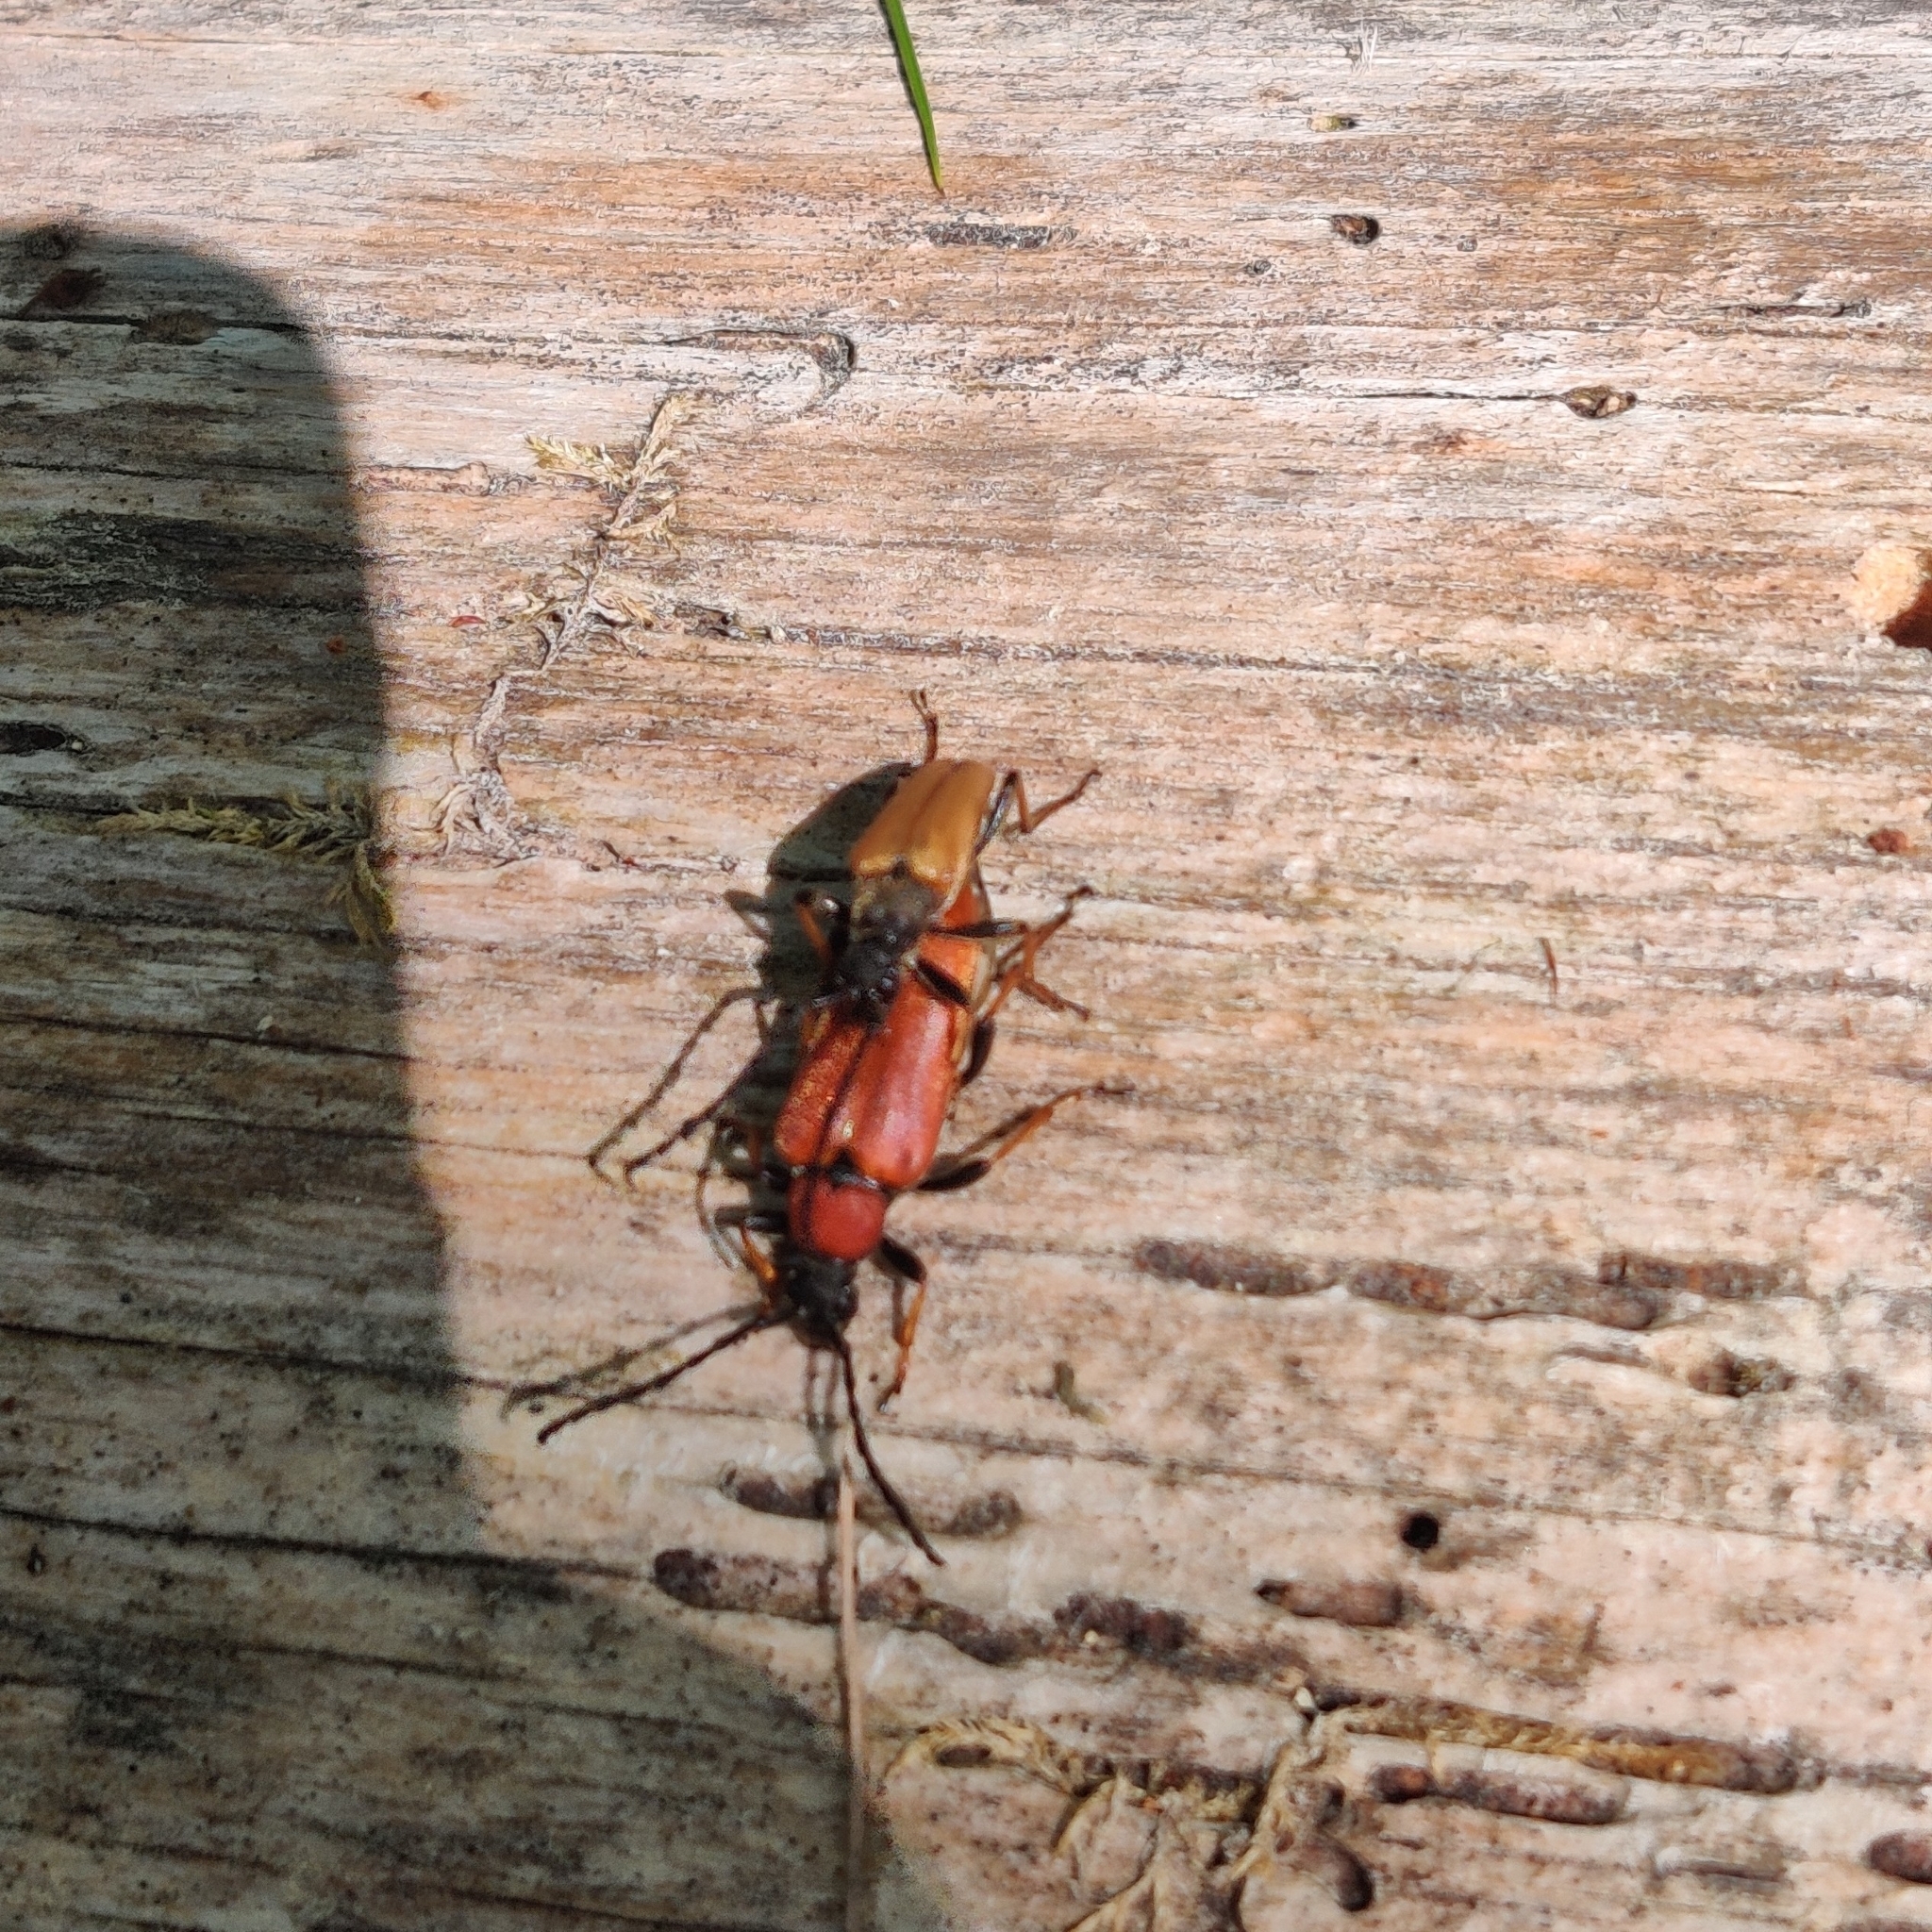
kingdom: Animalia
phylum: Arthropoda
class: Insecta
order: Coleoptera
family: Cerambycidae
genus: Stictoleptura
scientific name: Stictoleptura rubra
